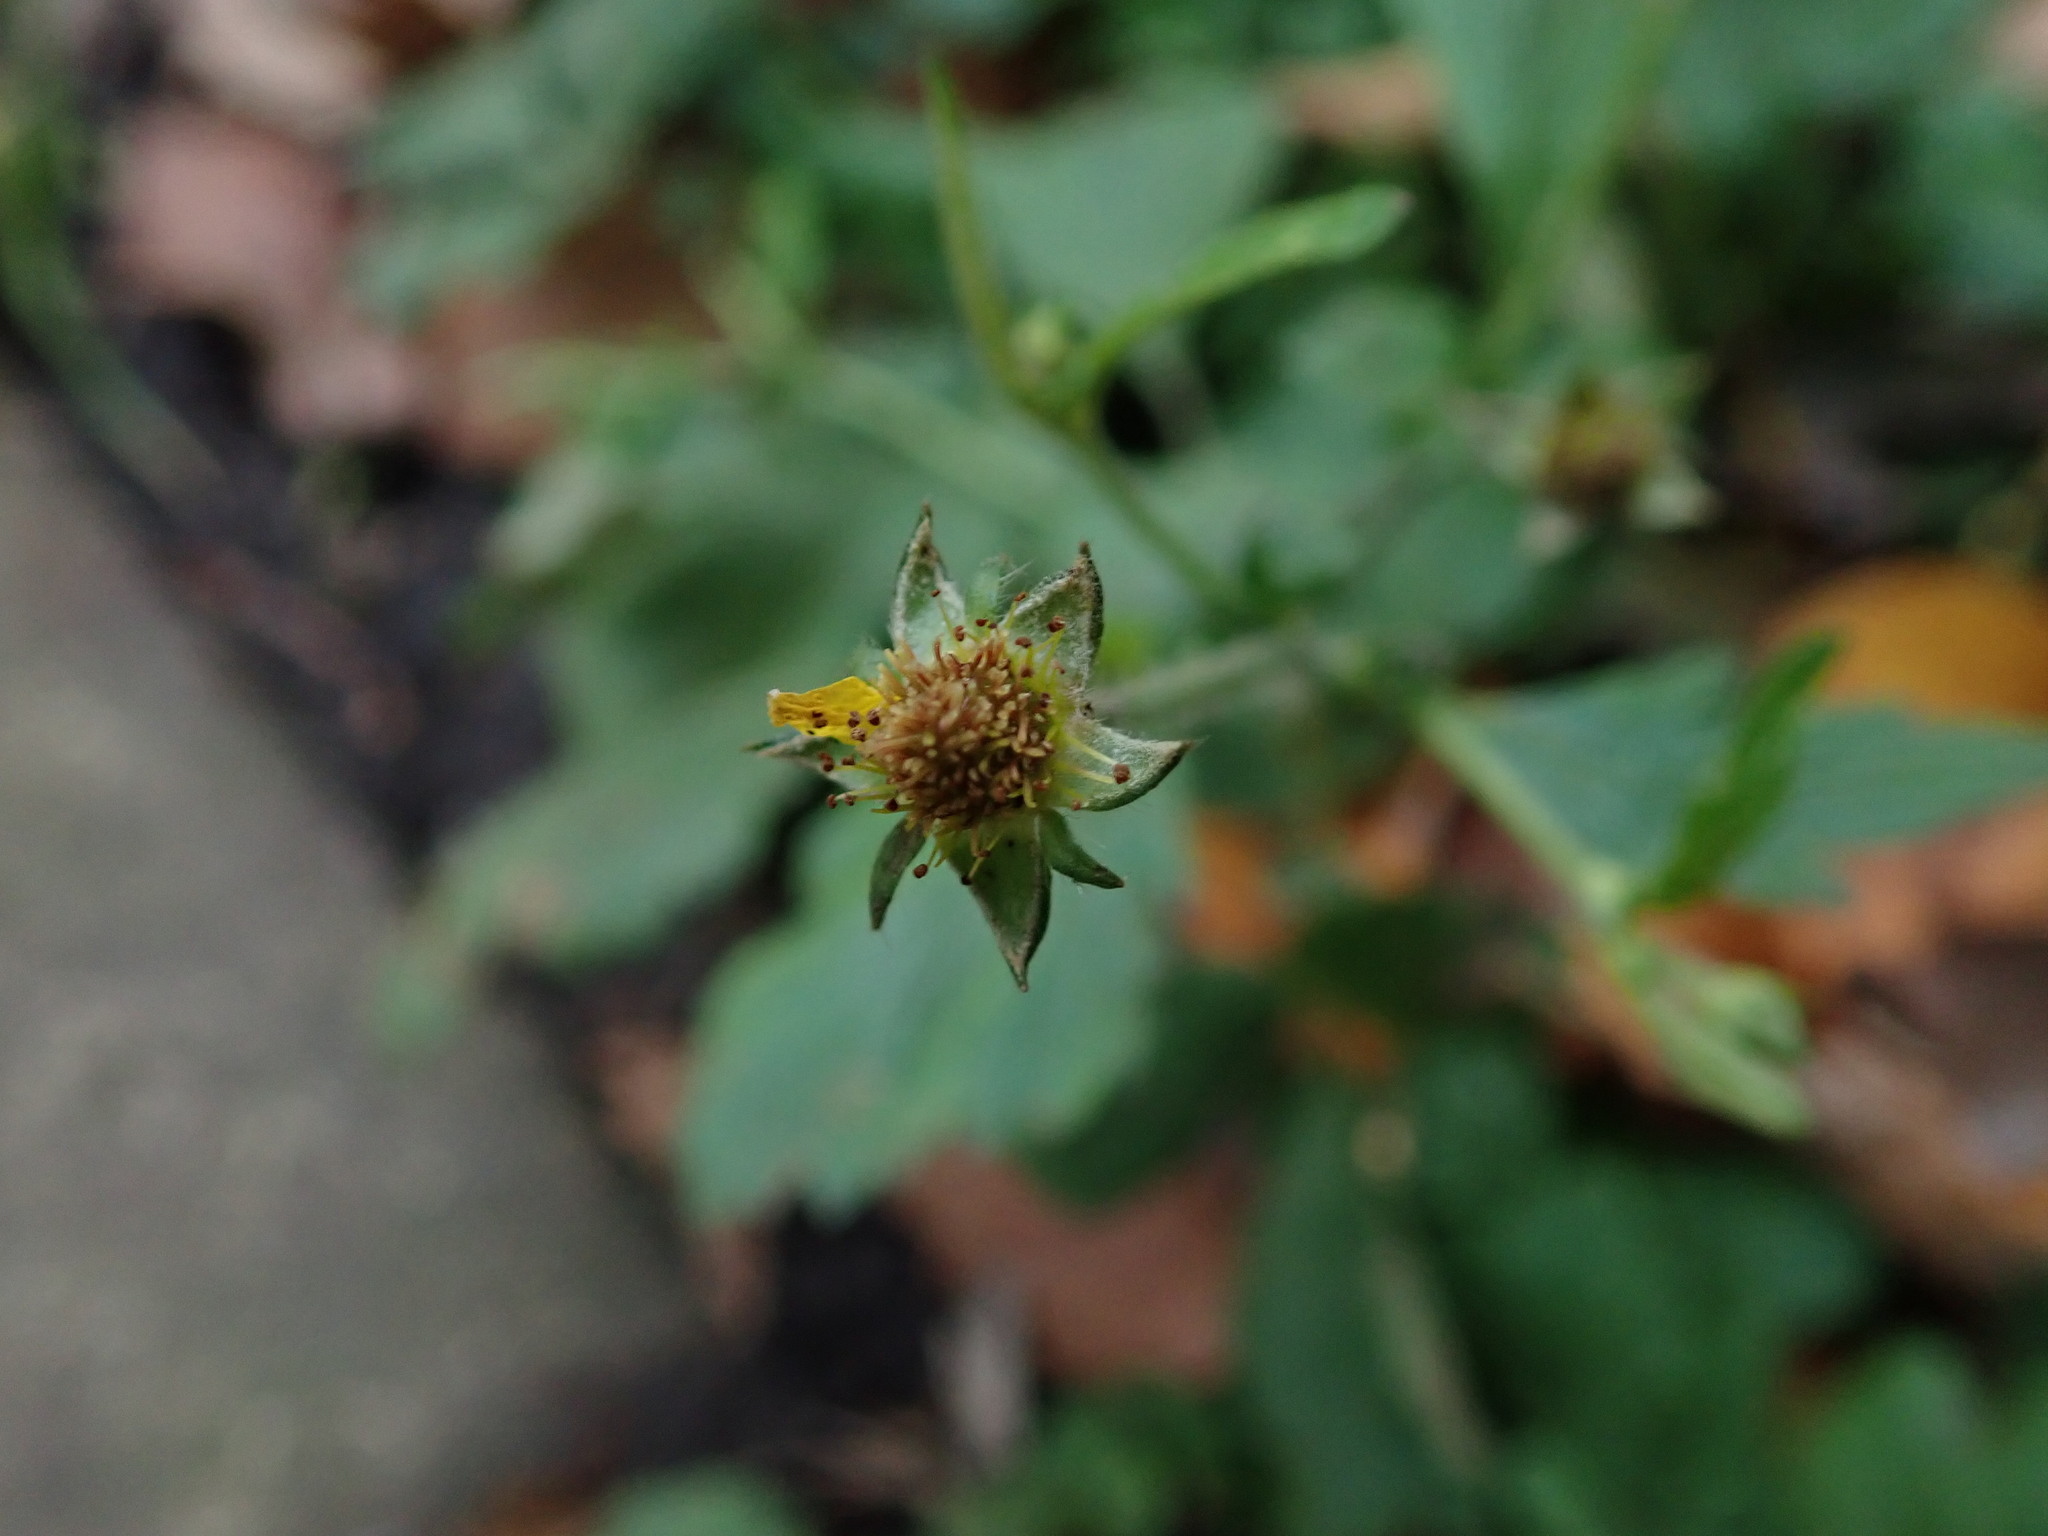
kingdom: Plantae
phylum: Tracheophyta
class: Magnoliopsida
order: Rosales
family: Rosaceae
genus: Geum
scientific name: Geum urbanum
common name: Wood avens
